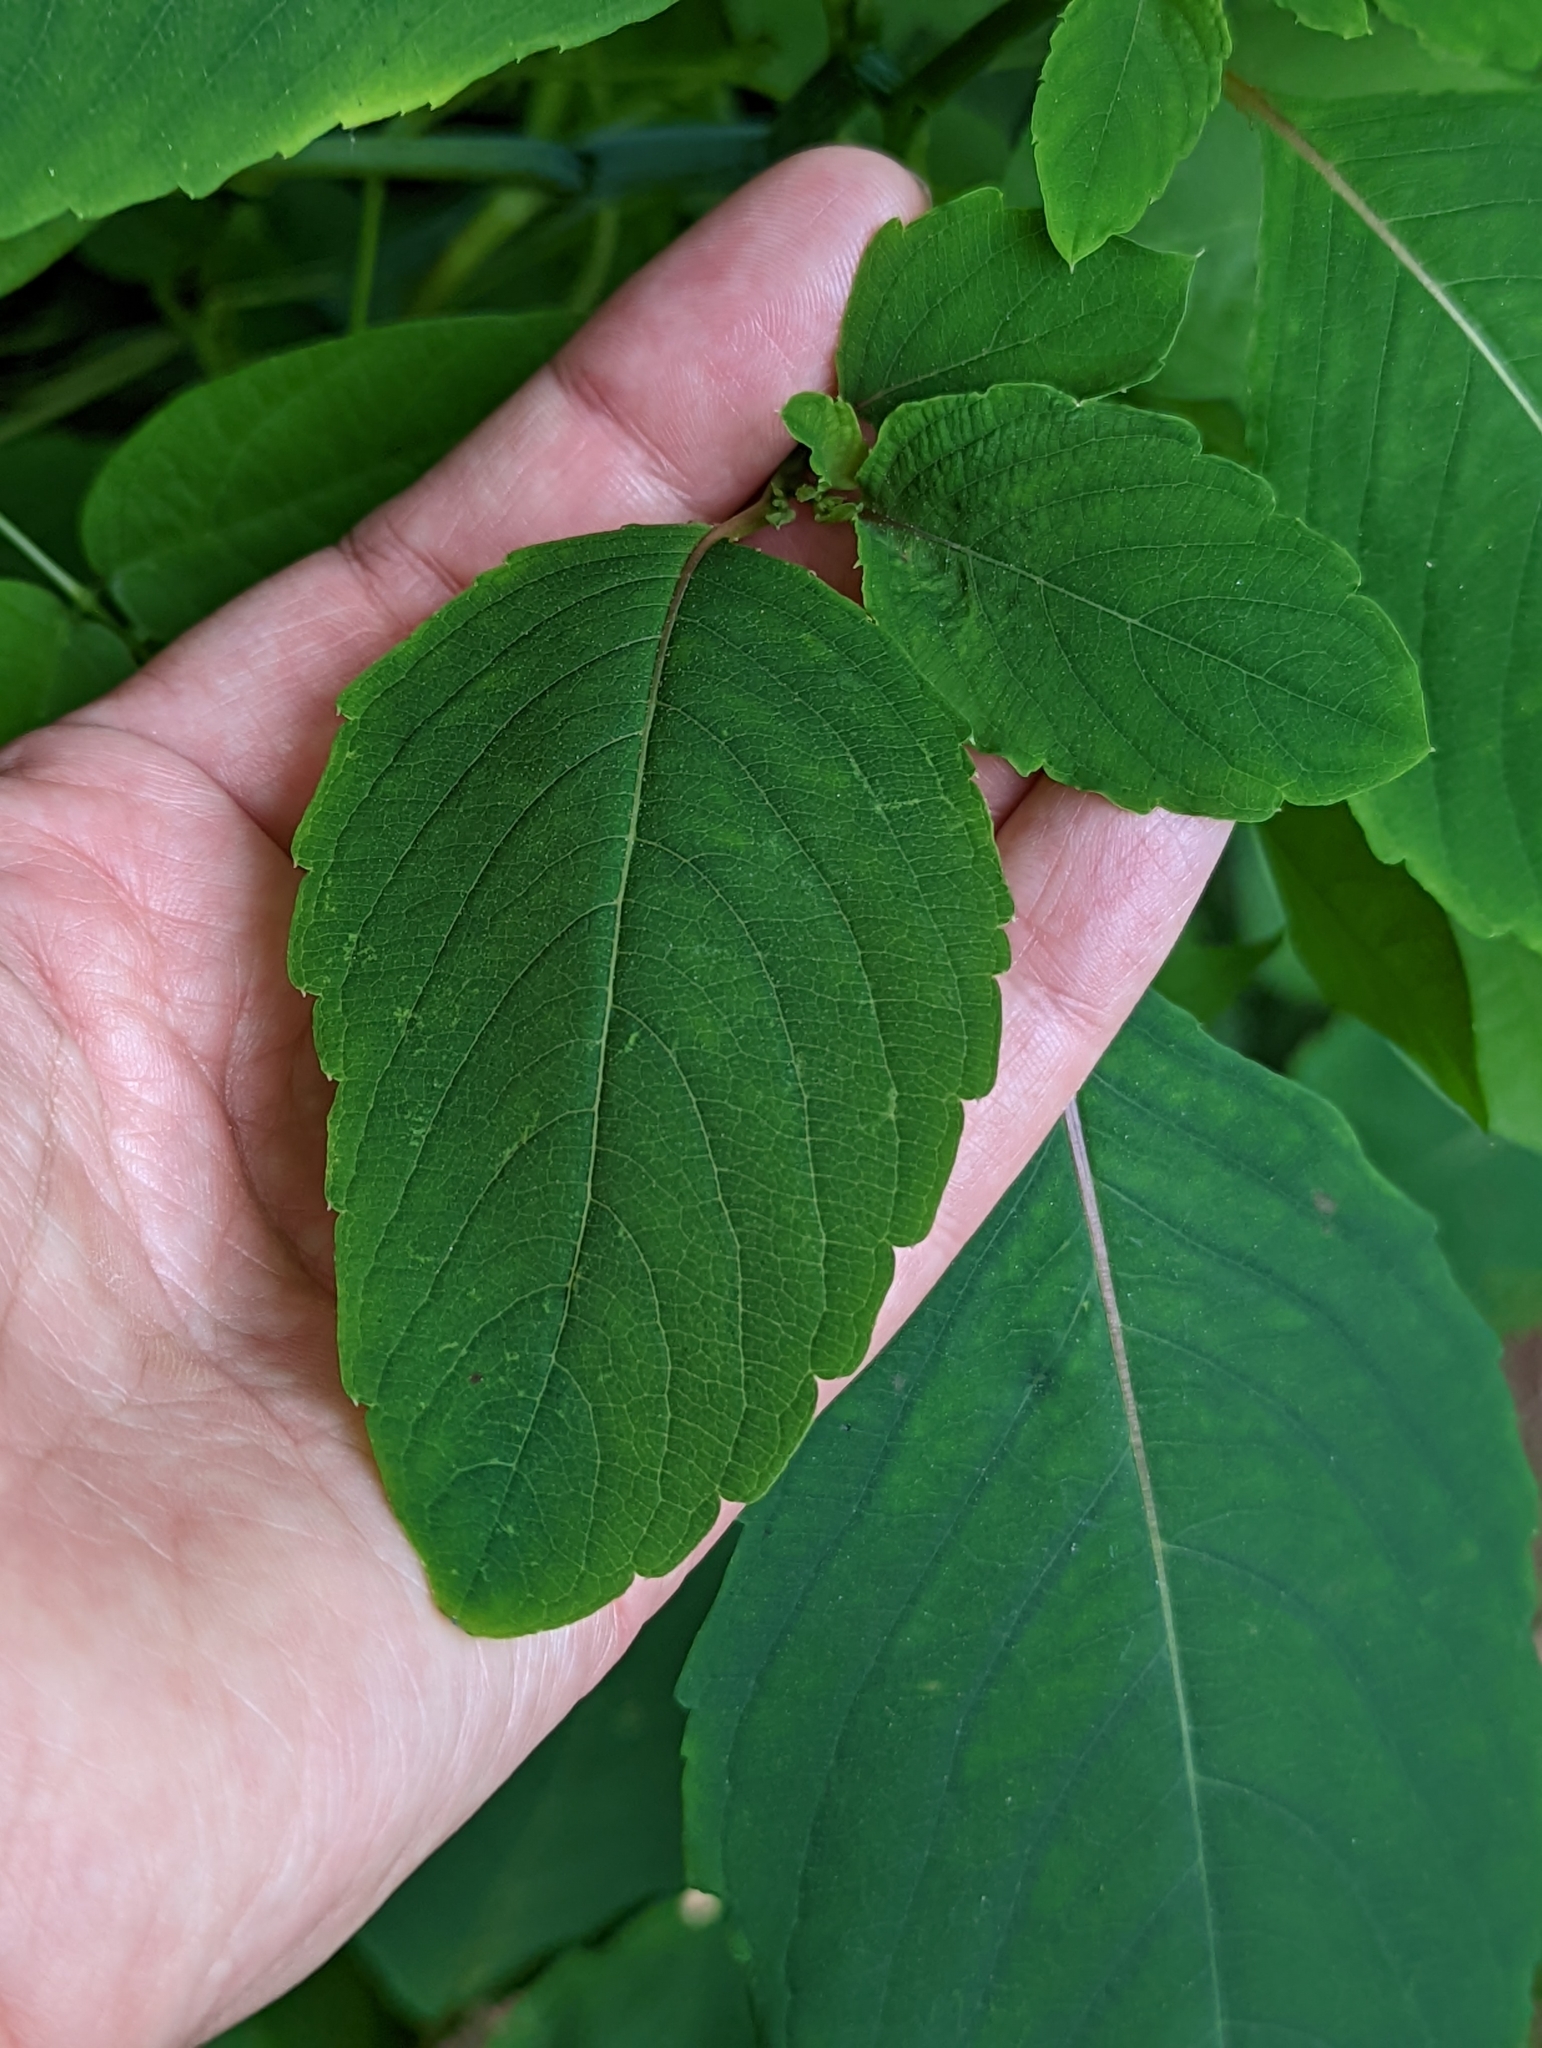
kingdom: Plantae
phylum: Tracheophyta
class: Magnoliopsida
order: Ericales
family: Balsaminaceae
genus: Impatiens
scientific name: Impatiens capensis
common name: Orange balsam
